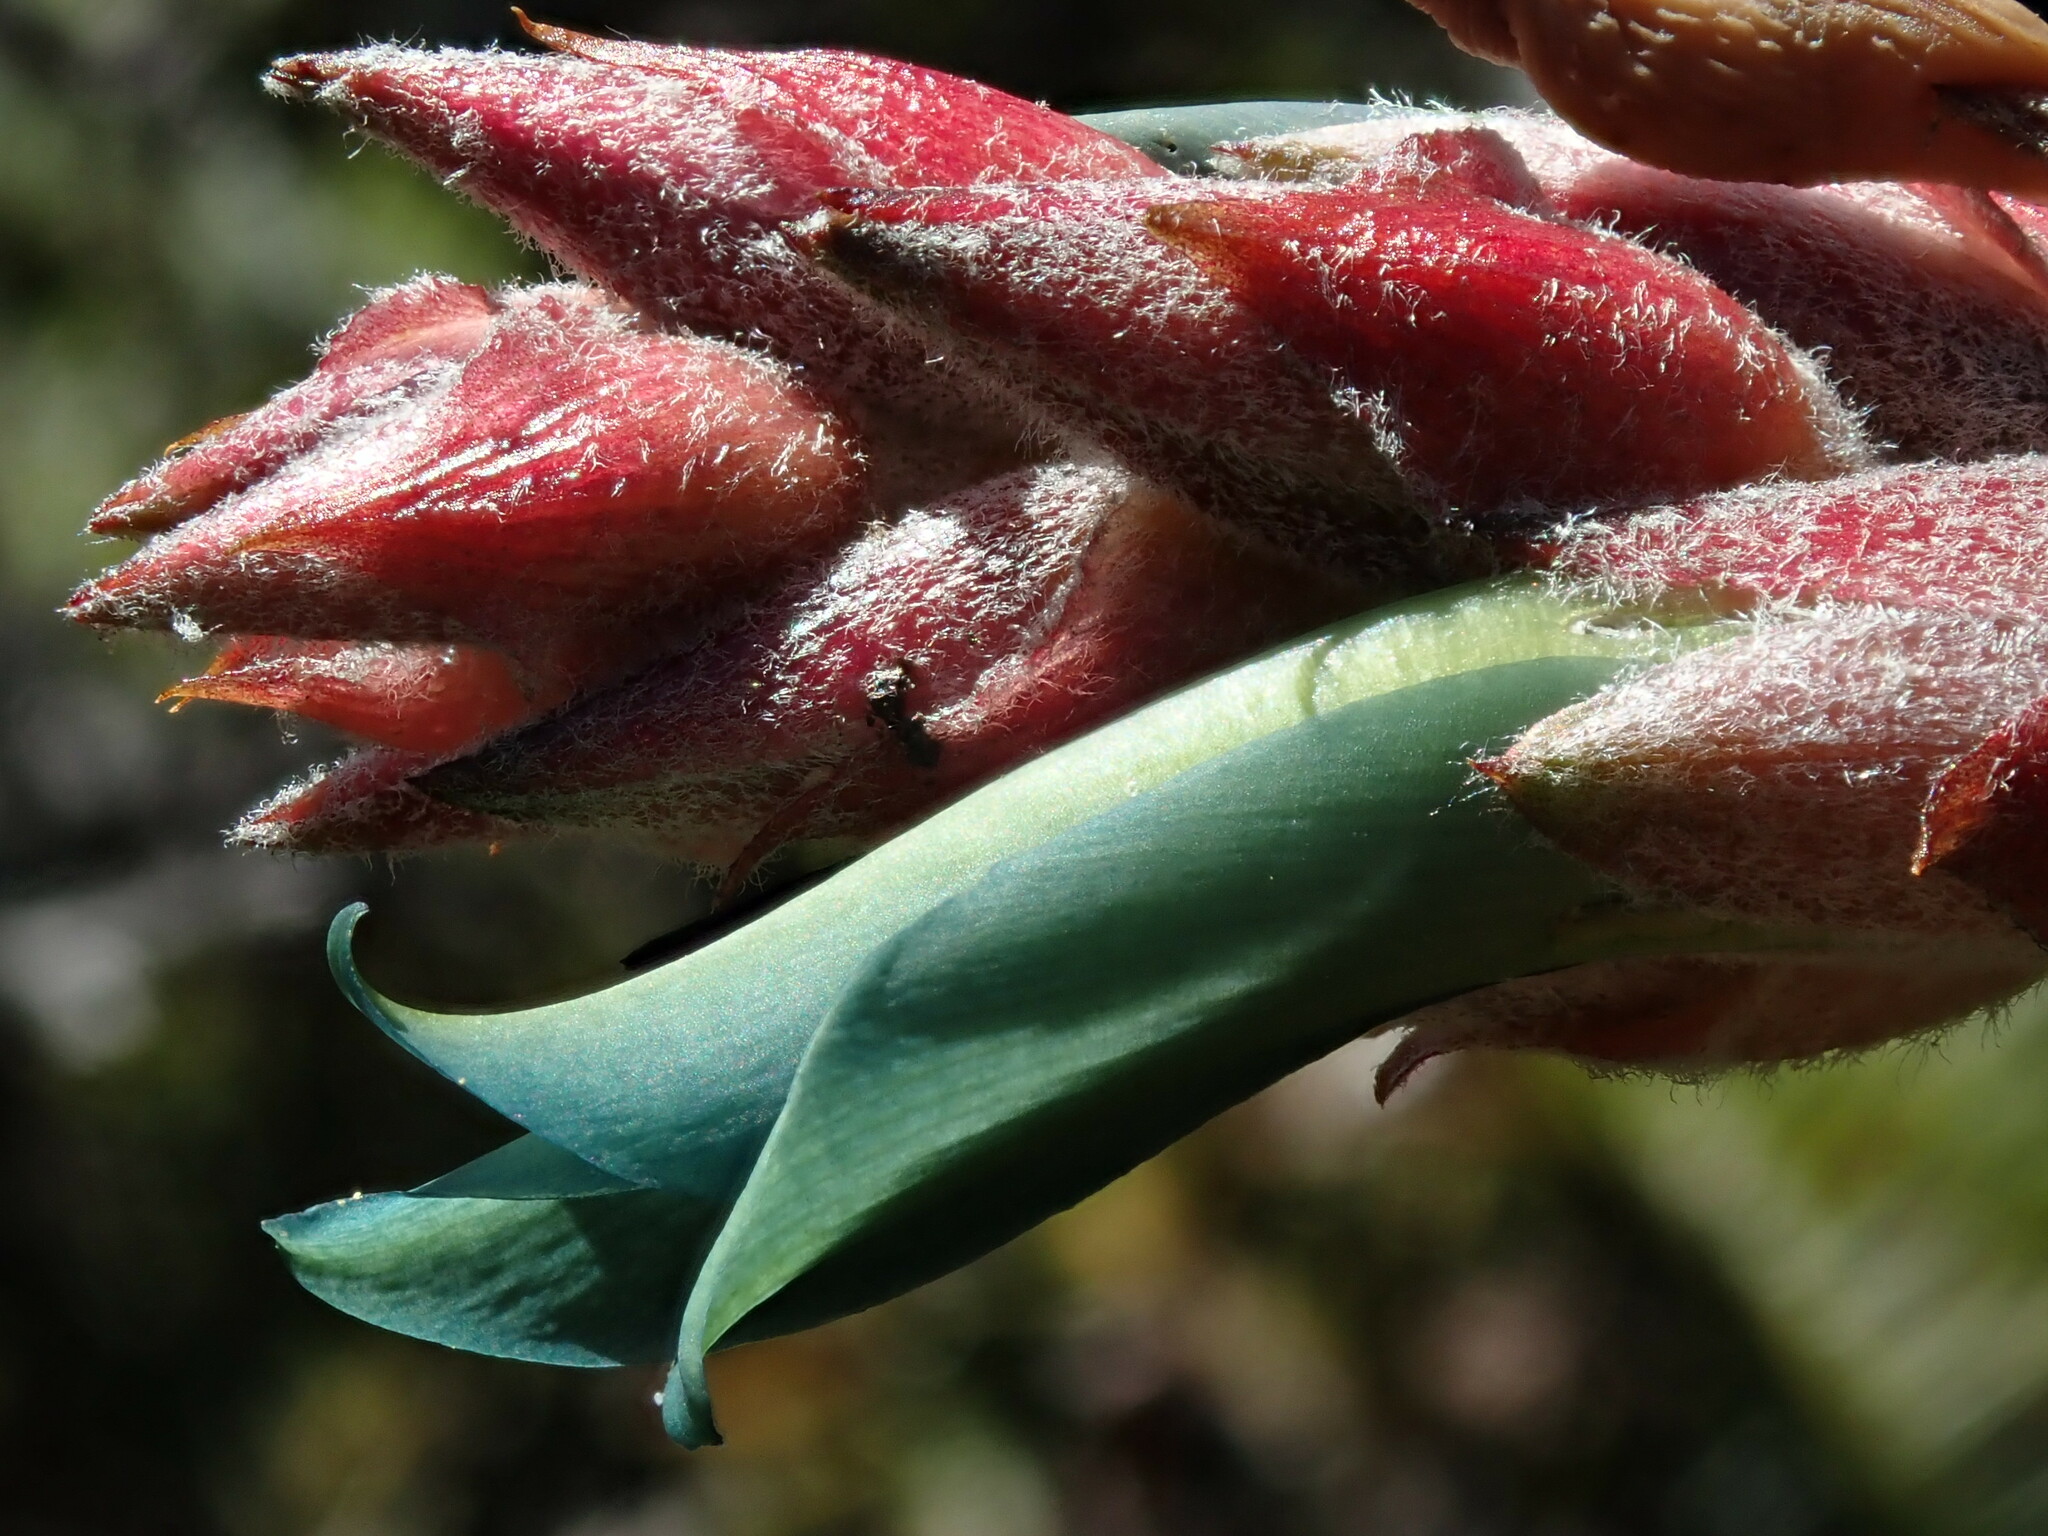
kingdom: Plantae
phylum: Tracheophyta
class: Liliopsida
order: Poales
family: Bromeliaceae
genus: Puya
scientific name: Puya parviflora
